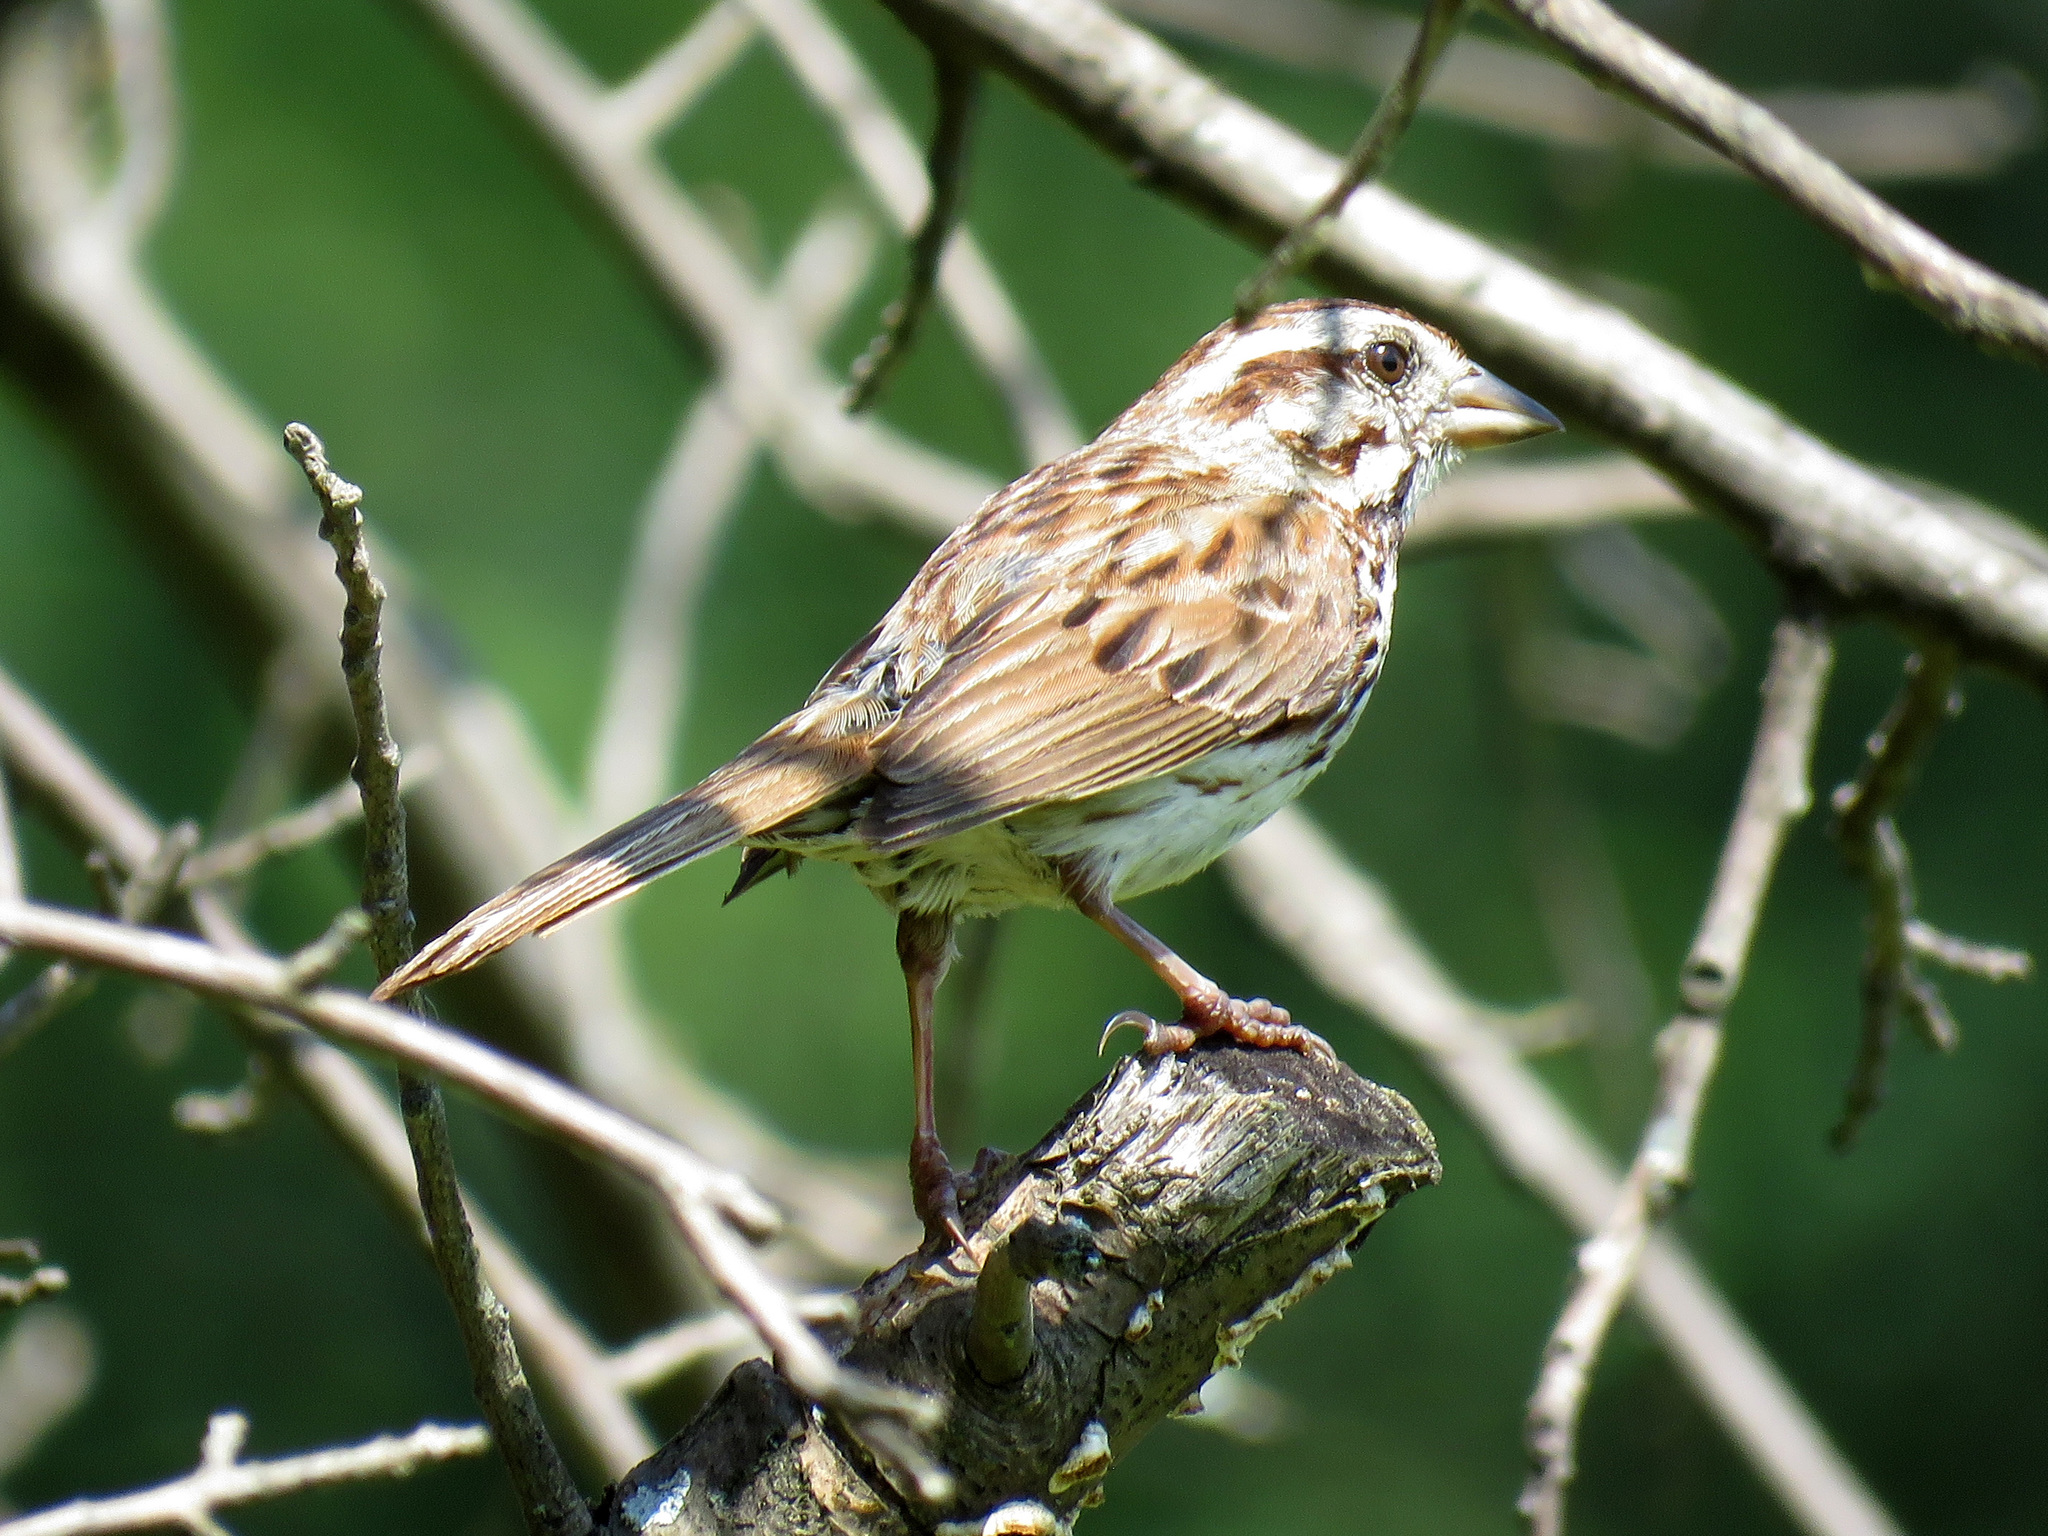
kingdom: Animalia
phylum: Chordata
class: Aves
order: Passeriformes
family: Passerellidae
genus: Melospiza
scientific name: Melospiza melodia
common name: Song sparrow
